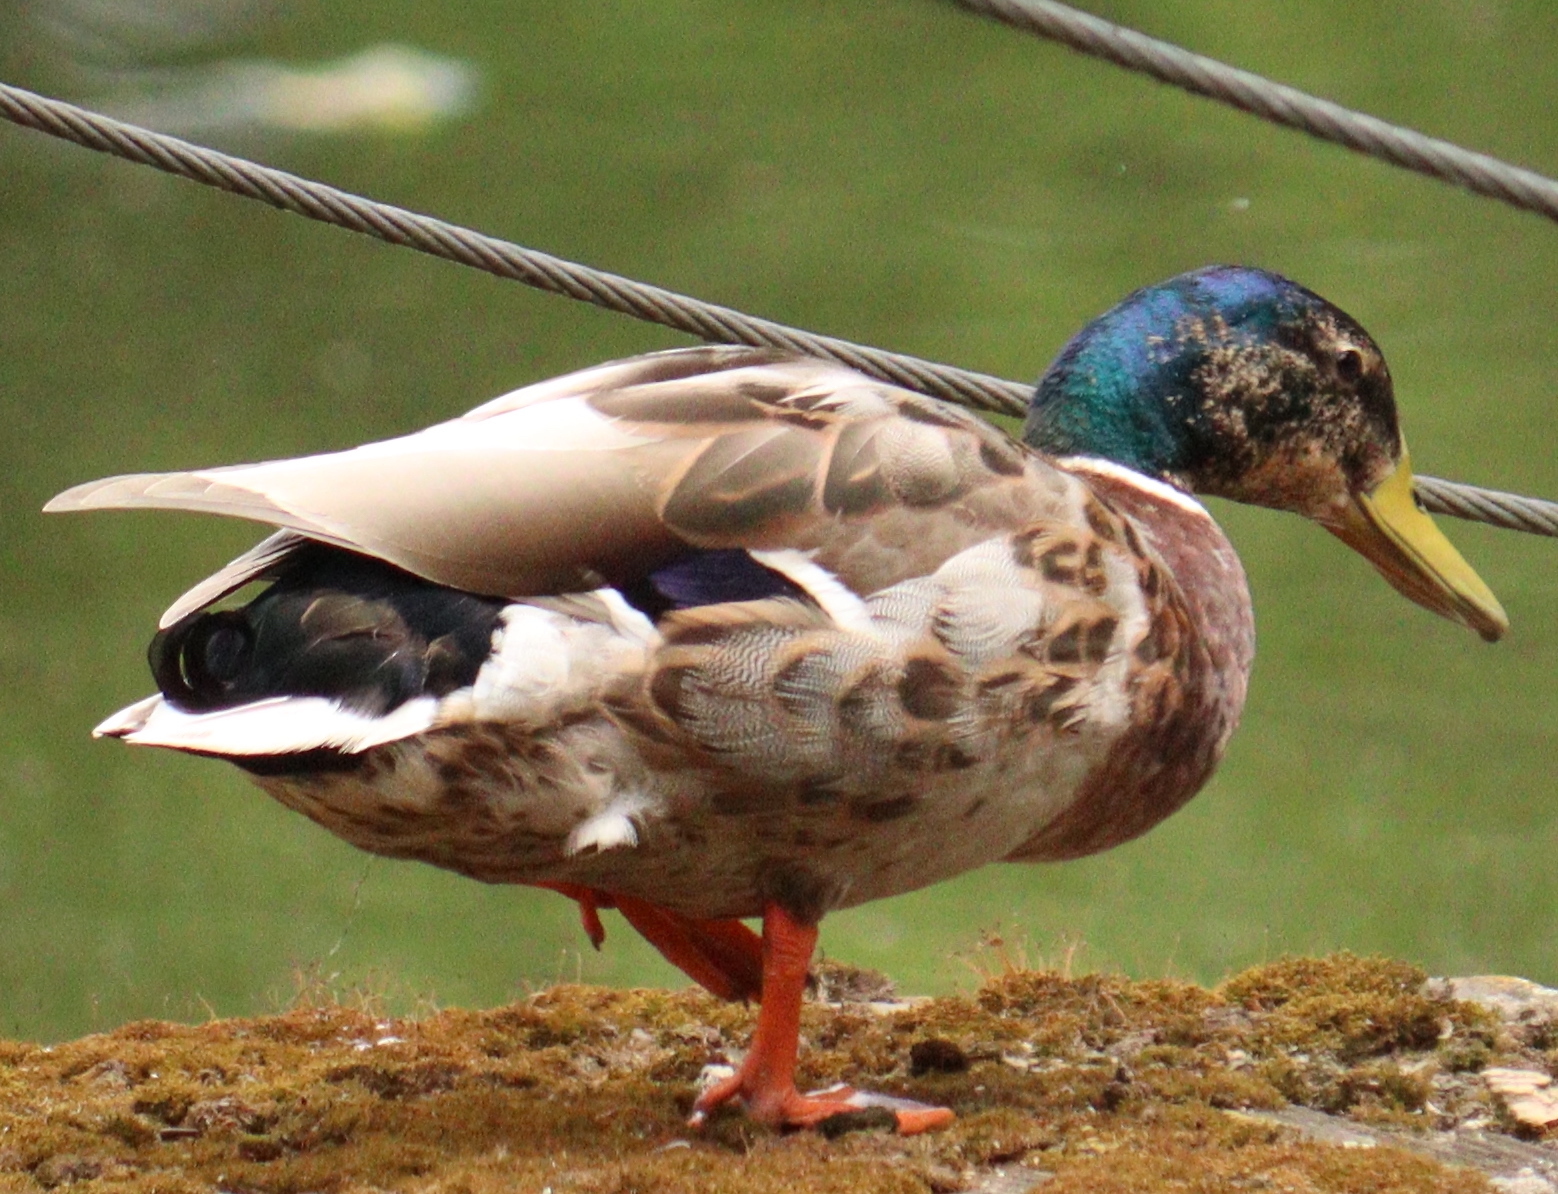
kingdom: Animalia
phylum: Chordata
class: Aves
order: Anseriformes
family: Anatidae
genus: Anas
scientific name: Anas platyrhynchos
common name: Mallard
